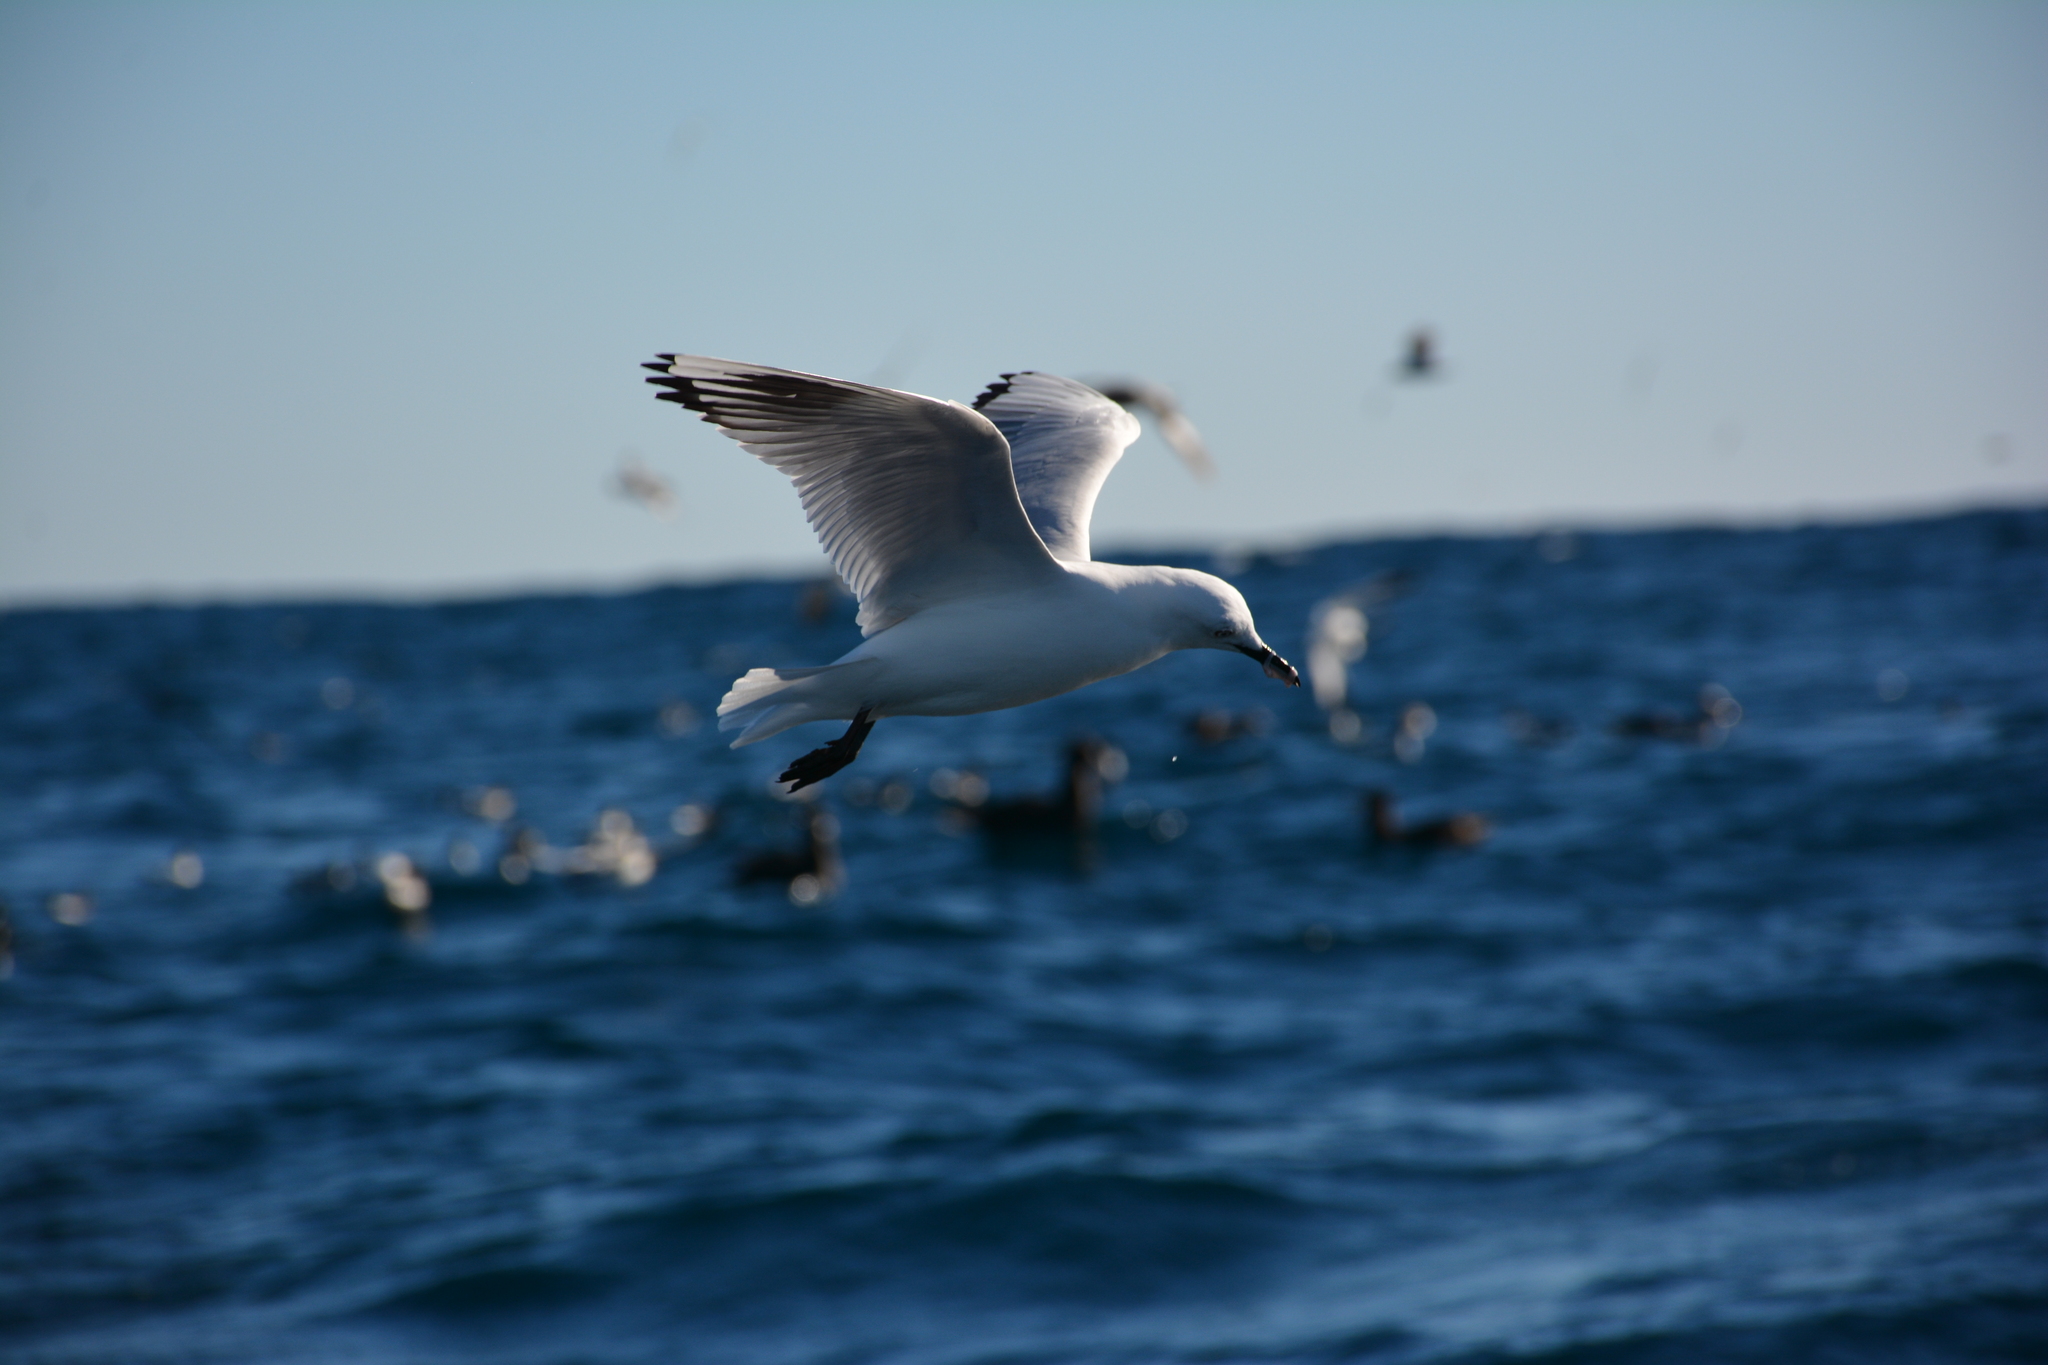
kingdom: Animalia
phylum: Chordata
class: Aves
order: Charadriiformes
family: Laridae
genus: Chroicocephalus
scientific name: Chroicocephalus novaehollandiae
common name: Silver gull
